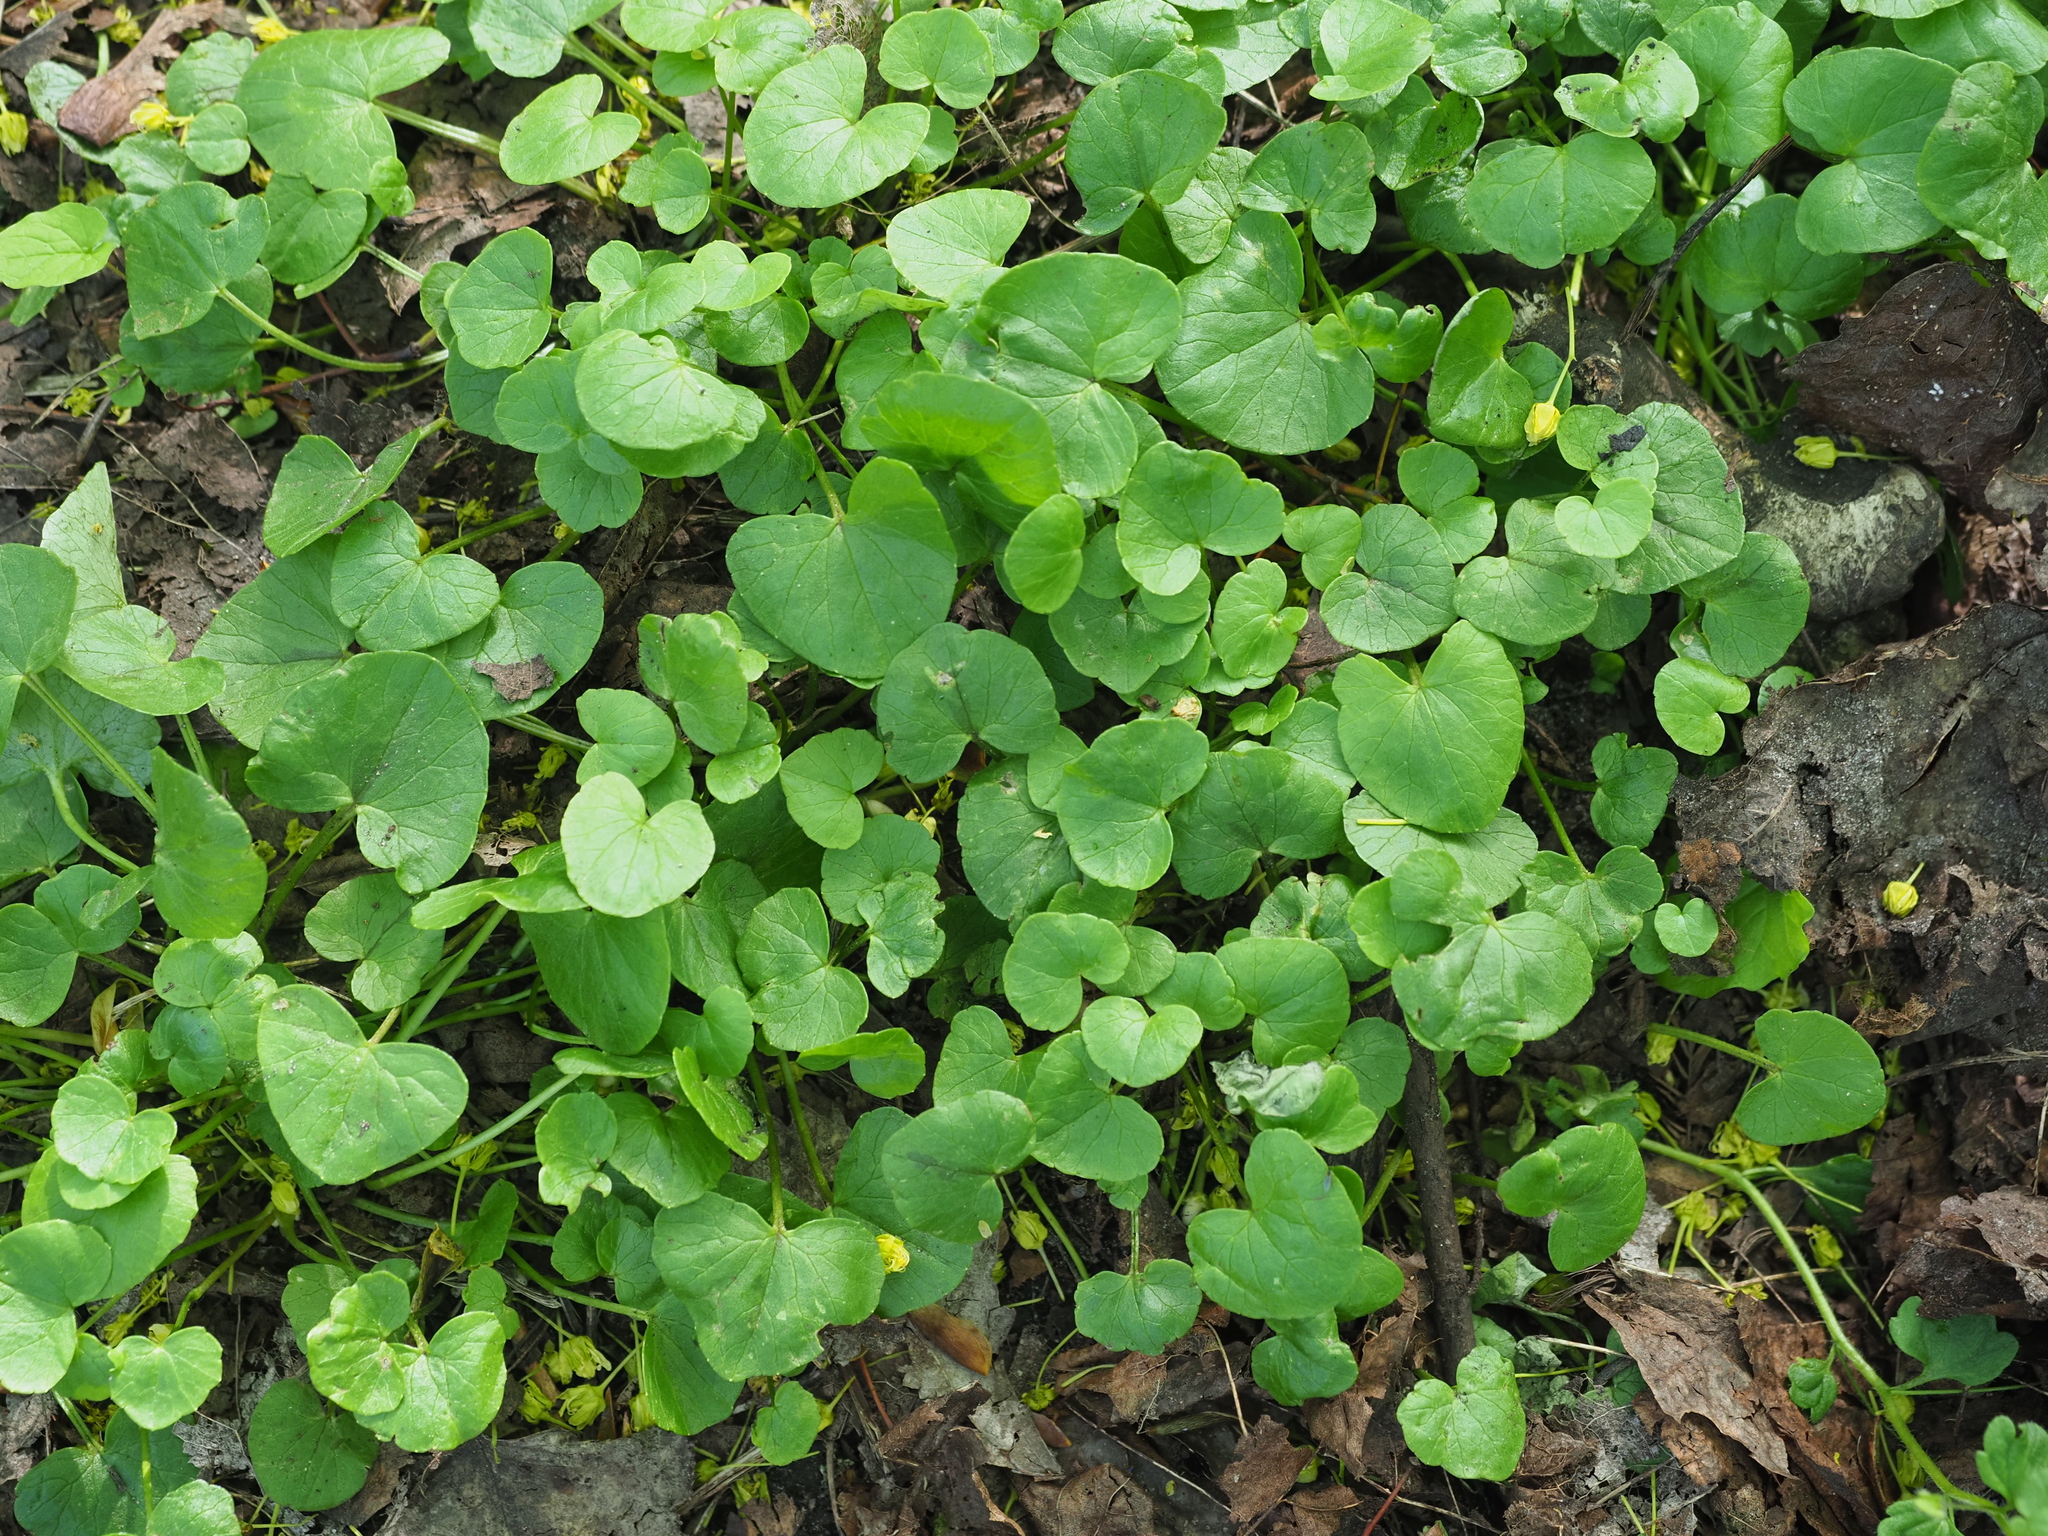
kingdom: Plantae
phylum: Tracheophyta
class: Magnoliopsida
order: Ranunculales
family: Ranunculaceae
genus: Ficaria
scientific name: Ficaria verna
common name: Lesser celandine
